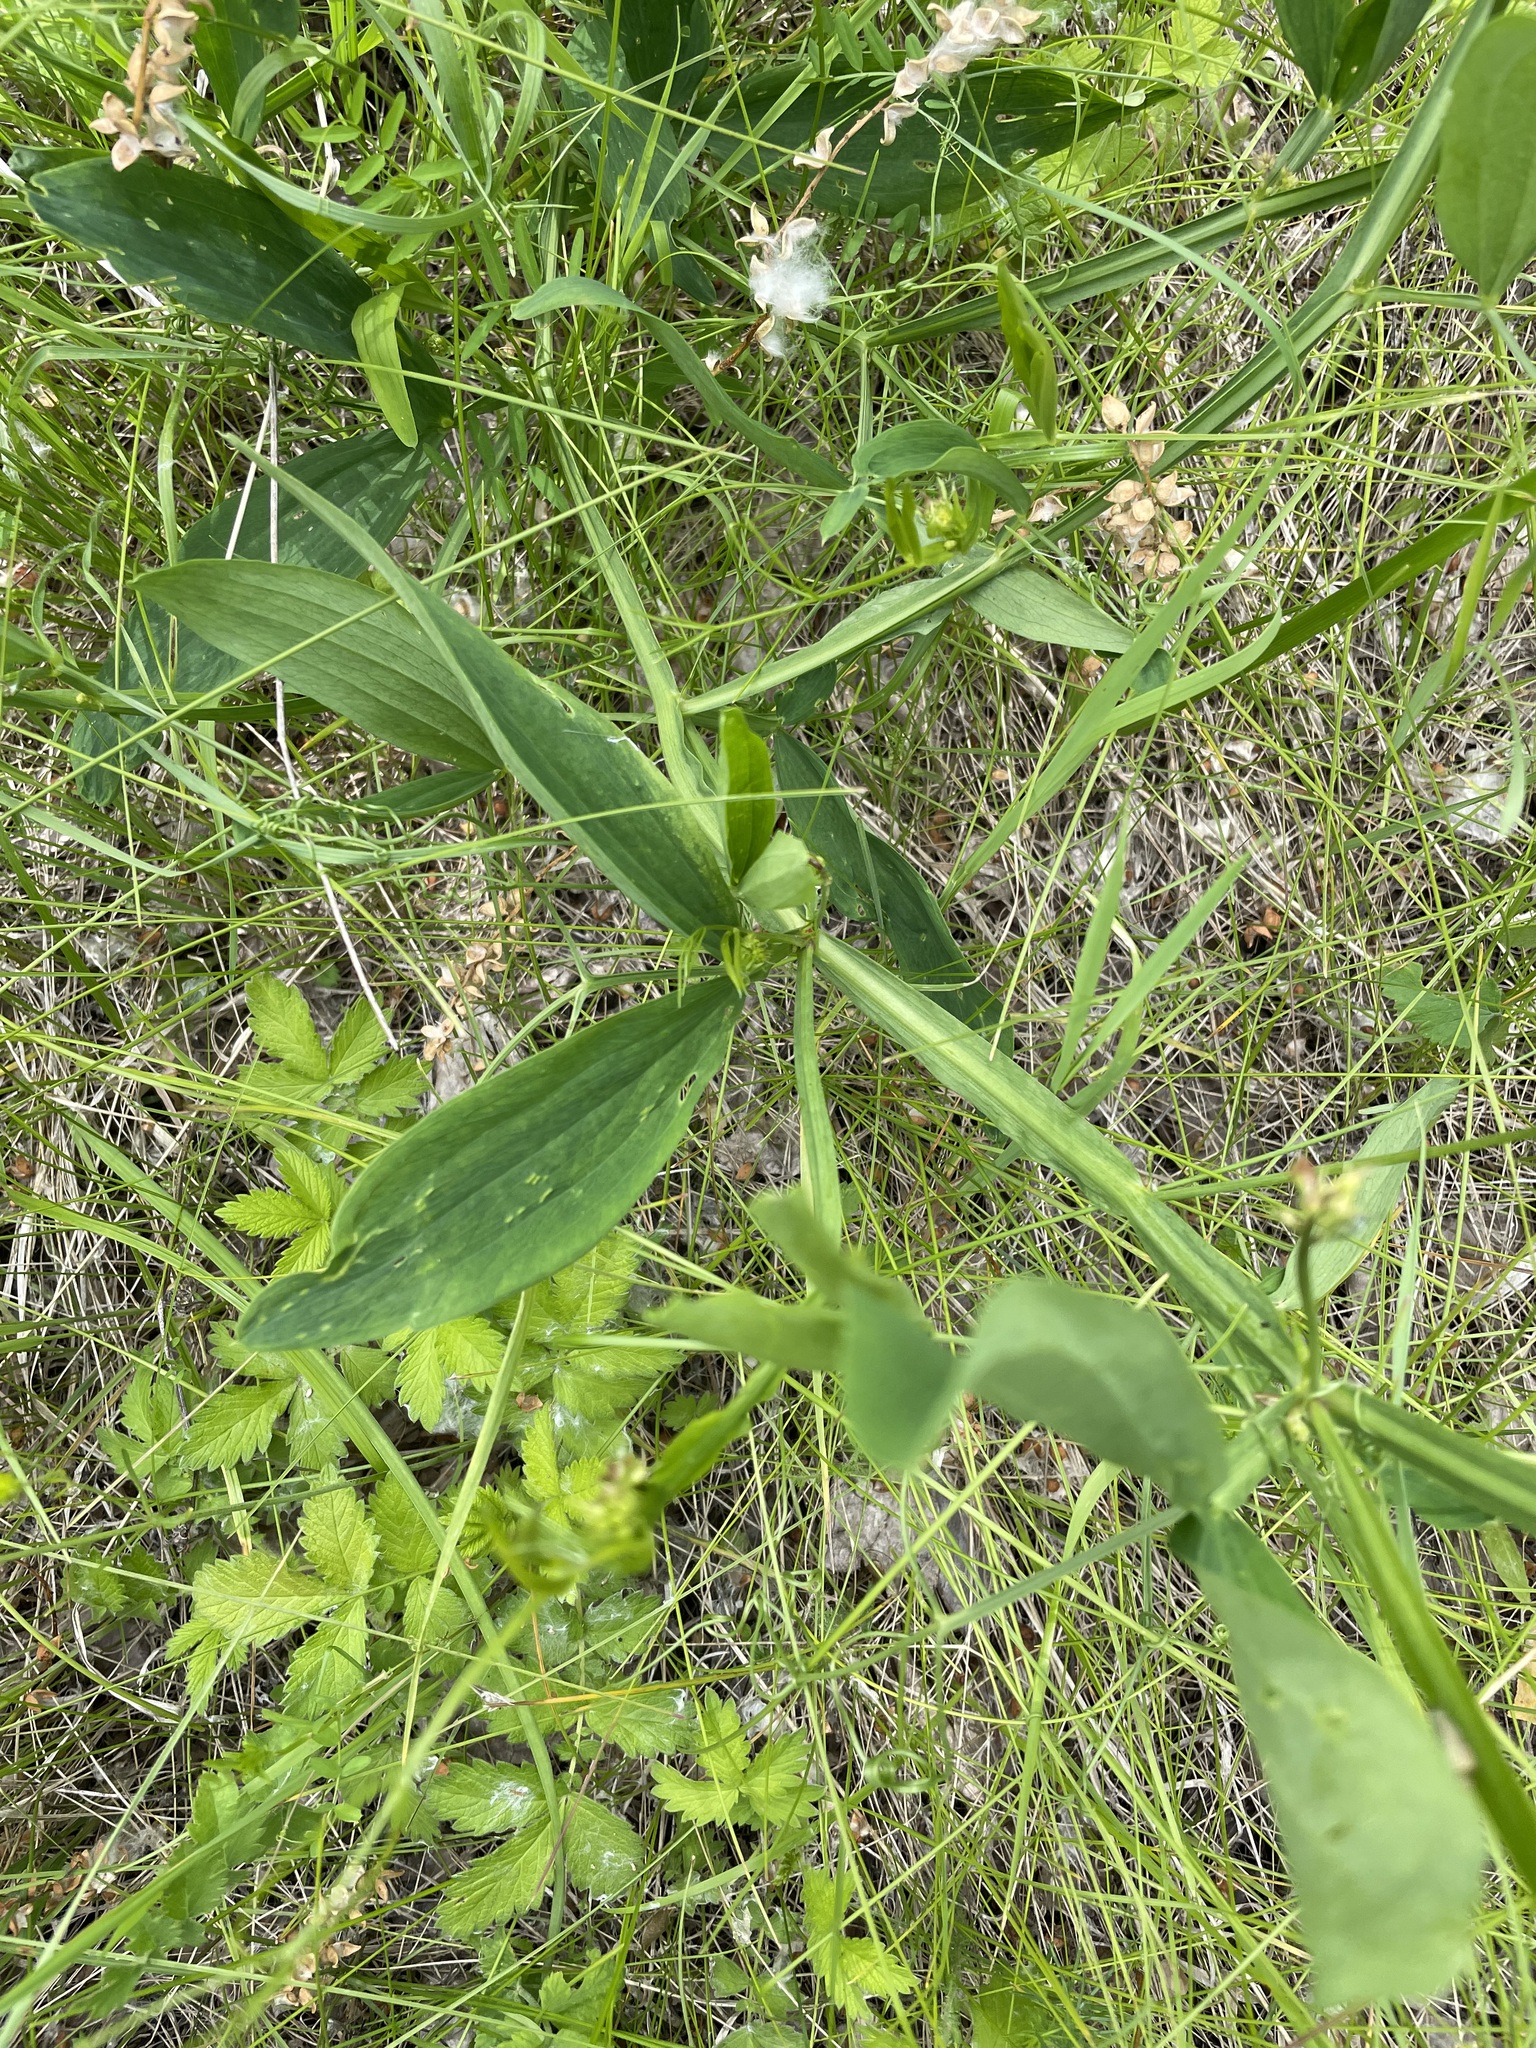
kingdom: Plantae
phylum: Tracheophyta
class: Magnoliopsida
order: Fabales
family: Fabaceae
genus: Lathyrus
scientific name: Lathyrus sylvestris
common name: Flat pea
